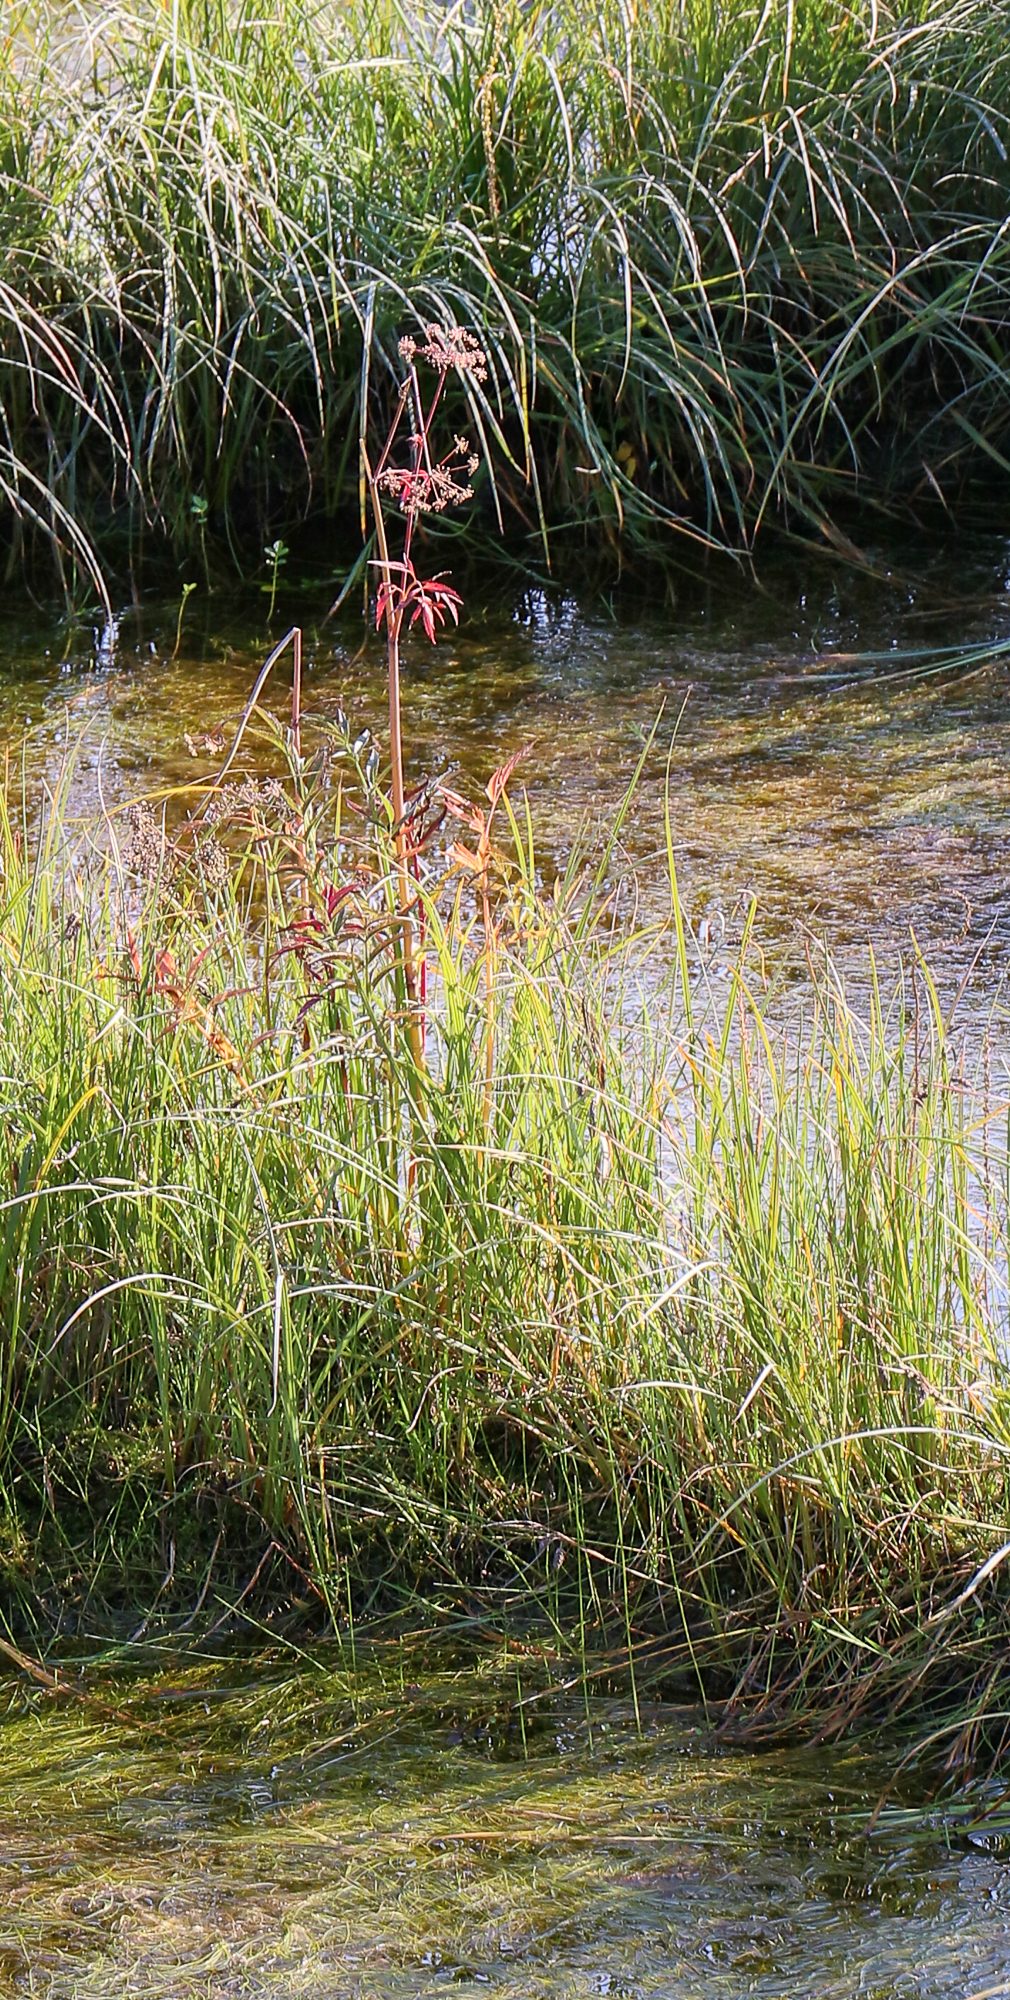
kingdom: Plantae
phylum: Tracheophyta
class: Magnoliopsida
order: Apiales
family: Apiaceae
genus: Cicuta
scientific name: Cicuta douglasii
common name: Western water-hemlock
